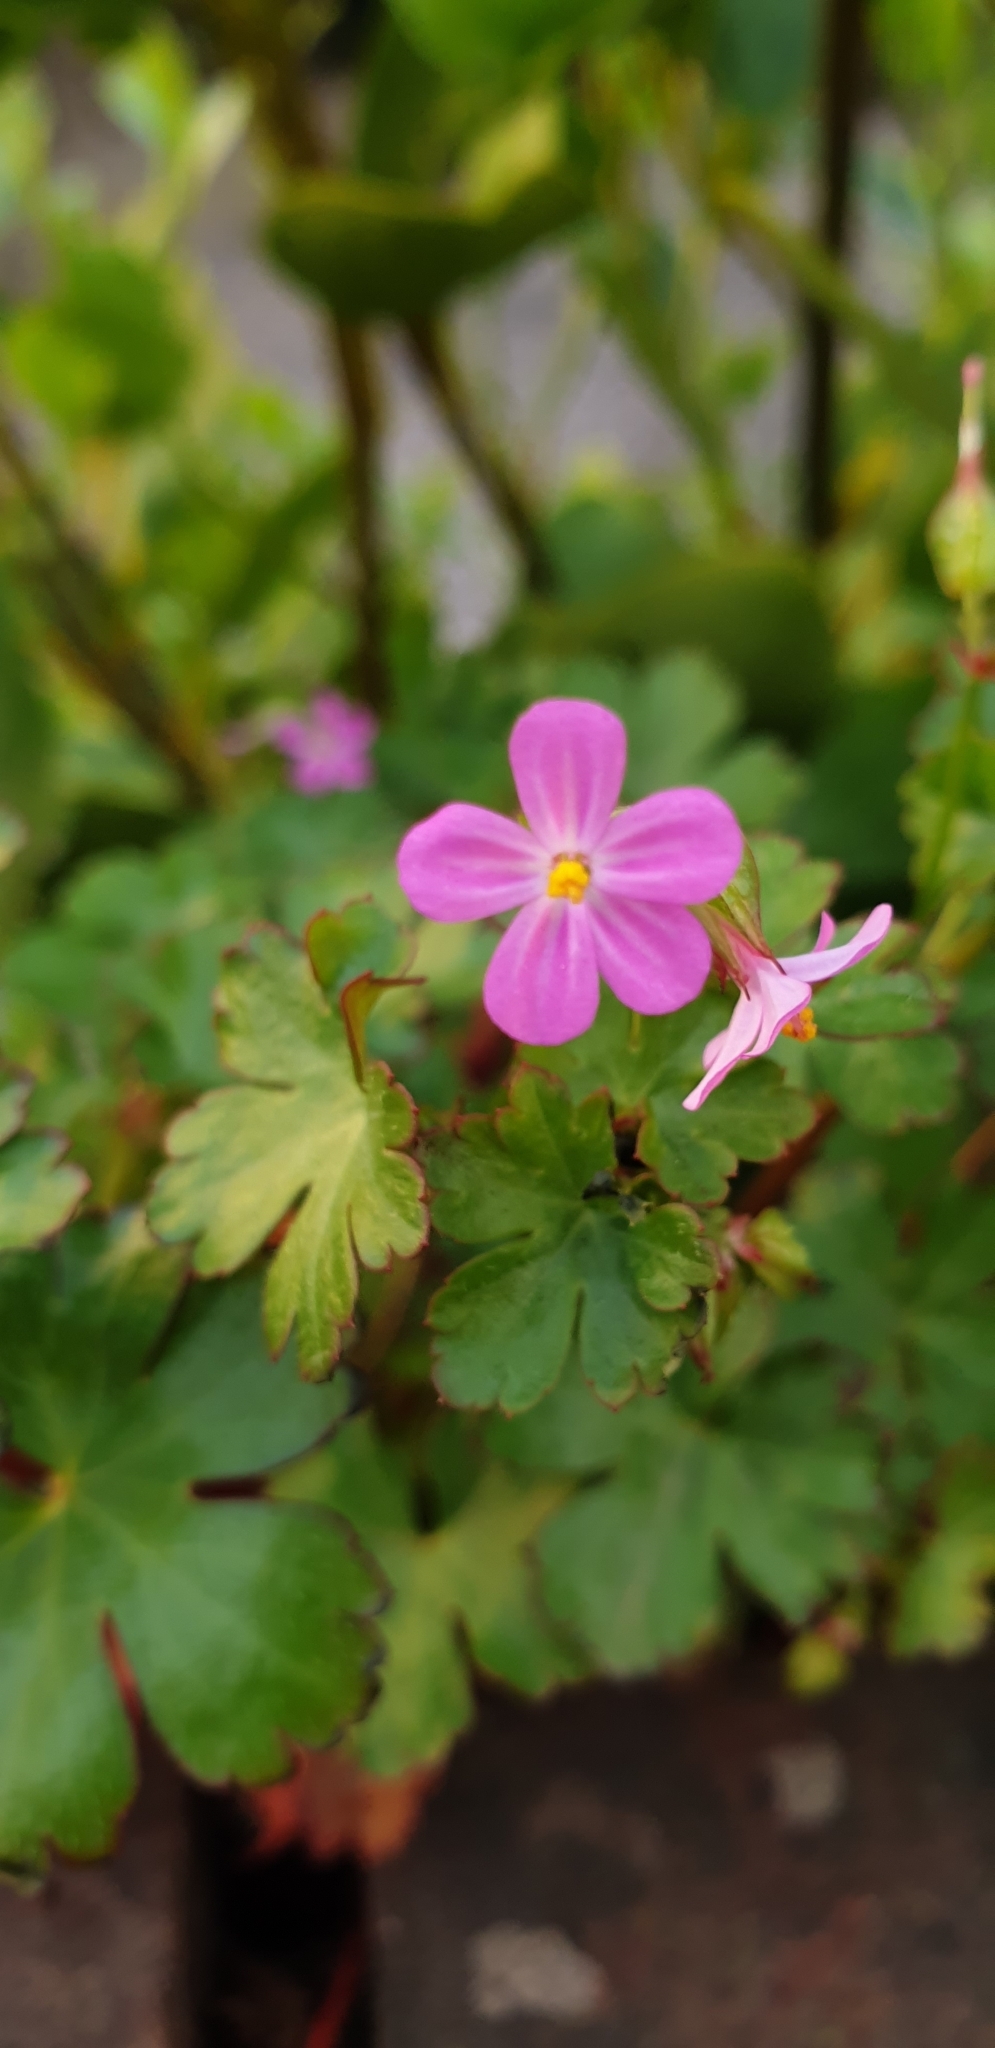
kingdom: Plantae
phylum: Tracheophyta
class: Magnoliopsida
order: Geraniales
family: Geraniaceae
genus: Geranium
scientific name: Geranium lucidum
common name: Shining crane's-bill
